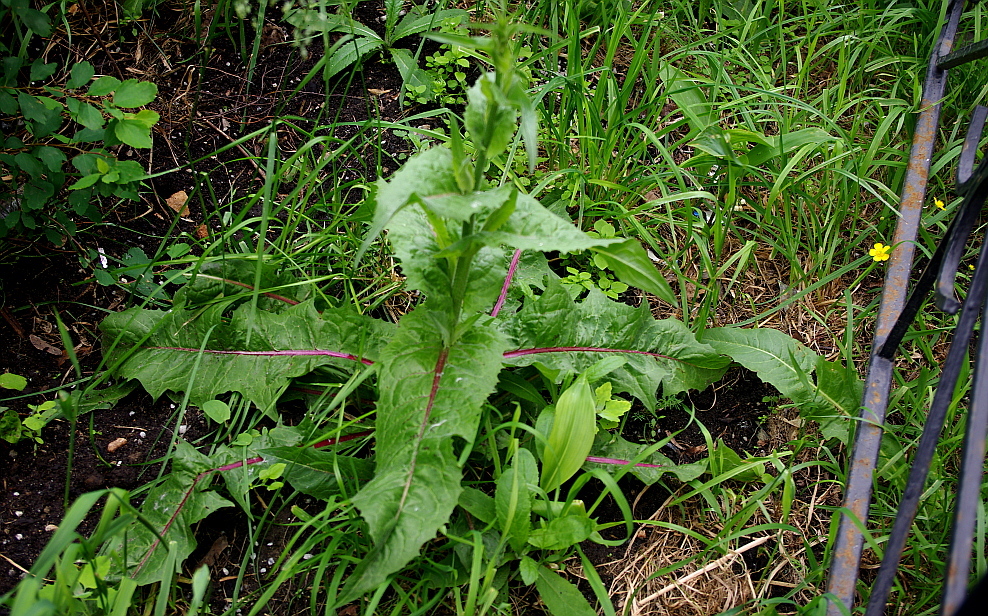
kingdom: Plantae
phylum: Tracheophyta
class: Magnoliopsida
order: Asterales
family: Asteraceae
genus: Cichorium
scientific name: Cichorium intybus
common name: Chicory
